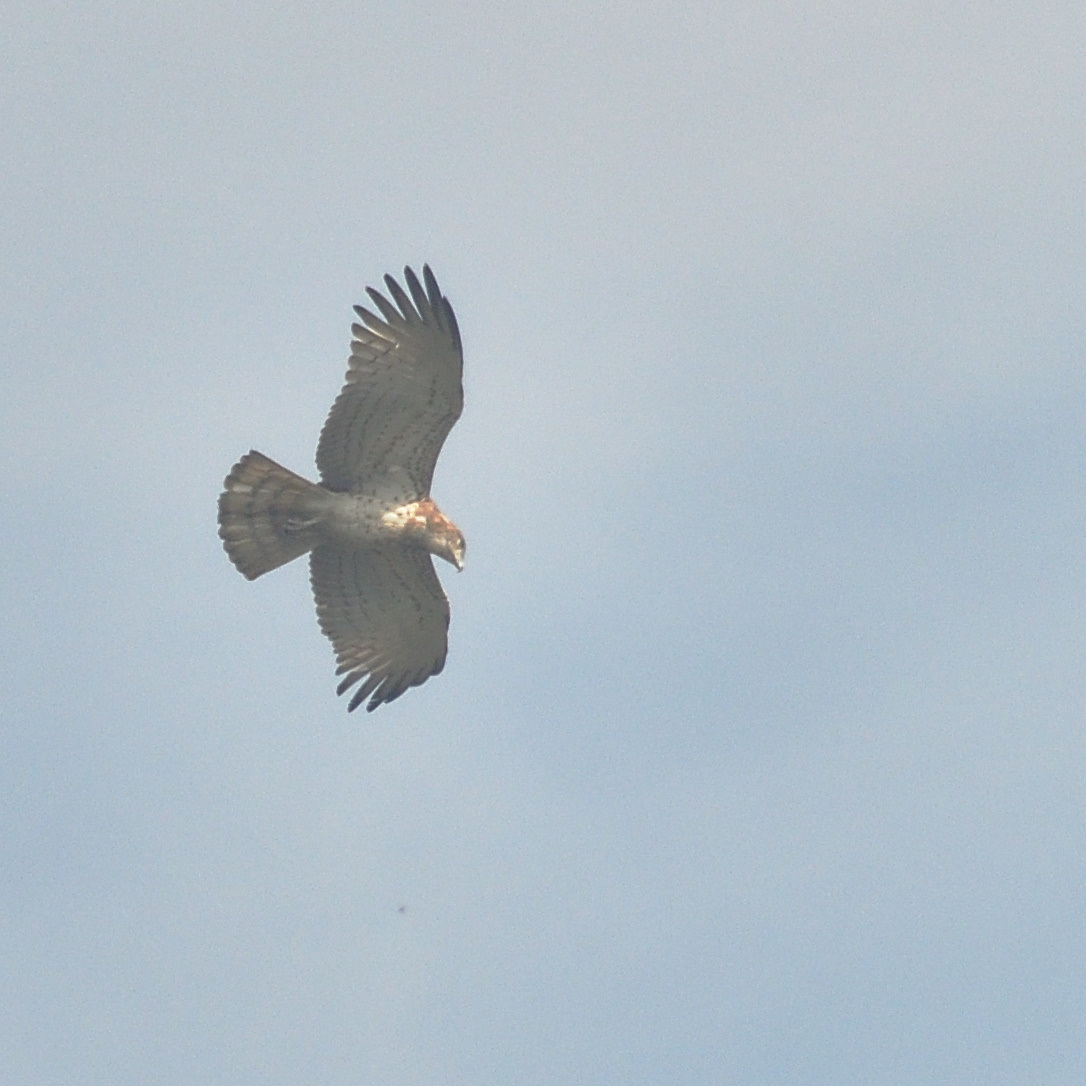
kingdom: Animalia
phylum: Chordata
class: Aves
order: Accipitriformes
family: Accipitridae
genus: Circaetus
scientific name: Circaetus gallicus
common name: Short-toed snake eagle
